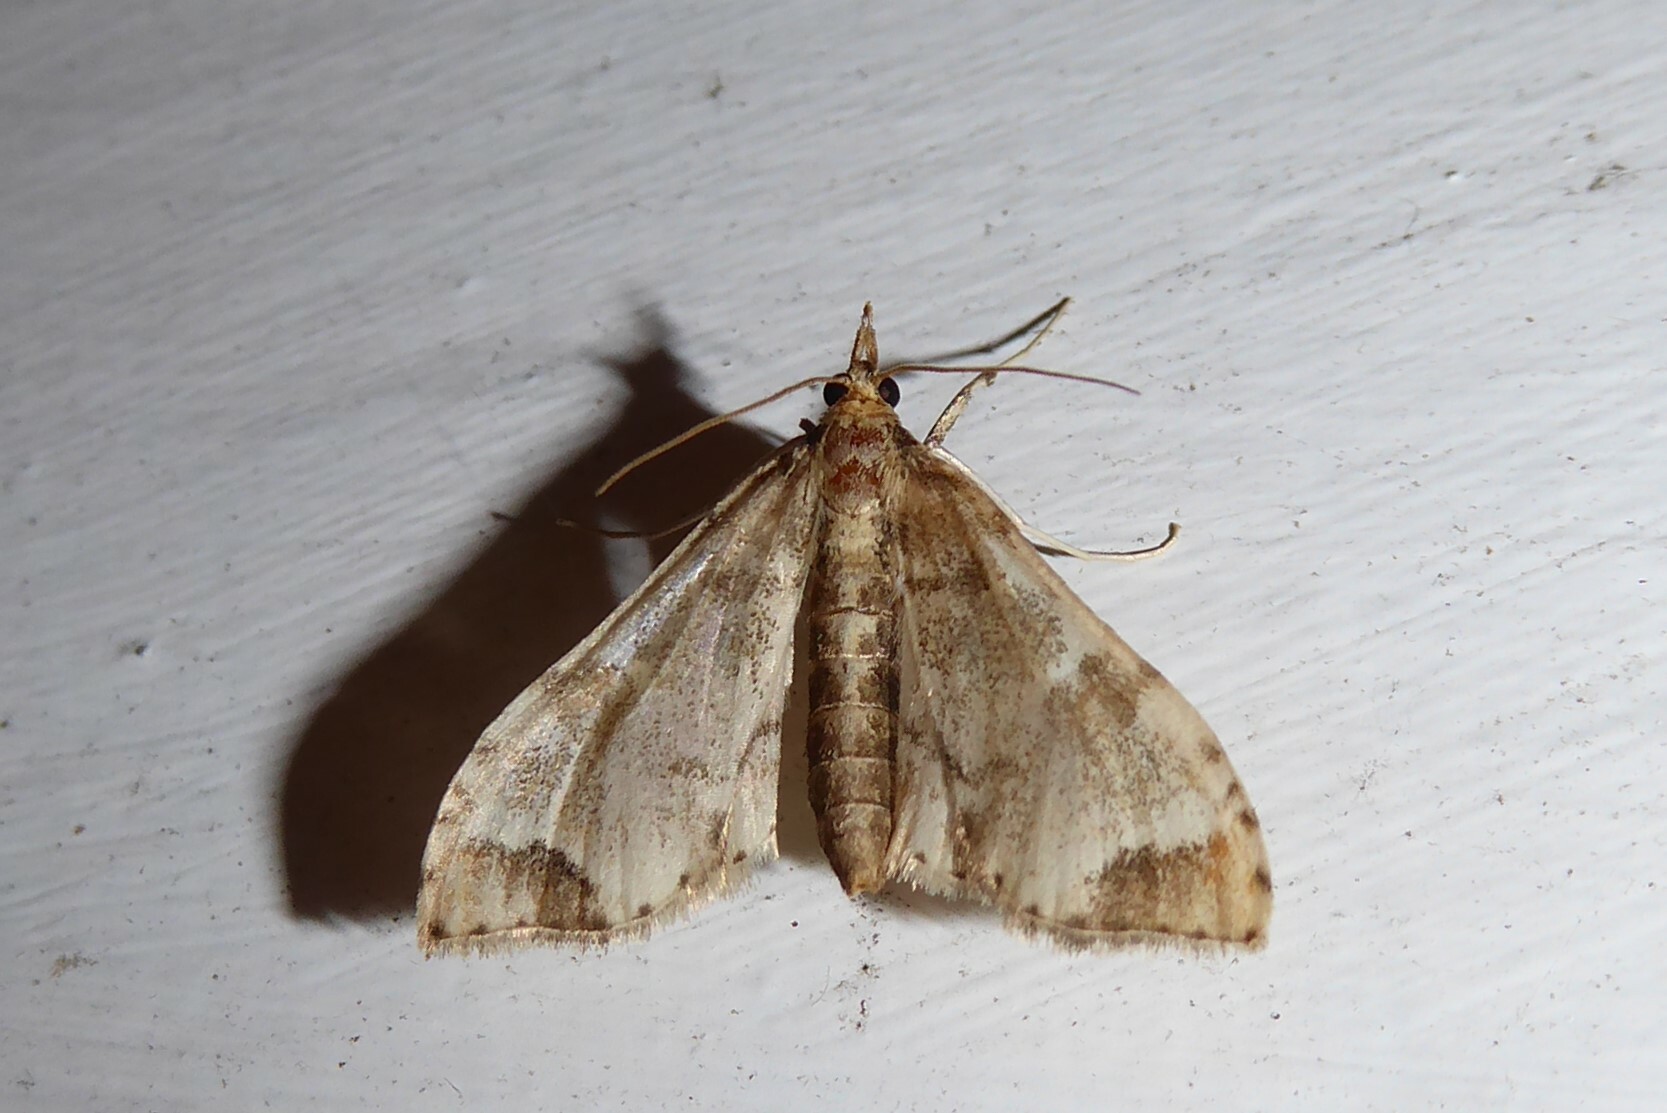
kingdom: Animalia
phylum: Arthropoda
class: Insecta
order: Lepidoptera
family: Crambidae
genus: Sceliodes
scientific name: Sceliodes cordalis
